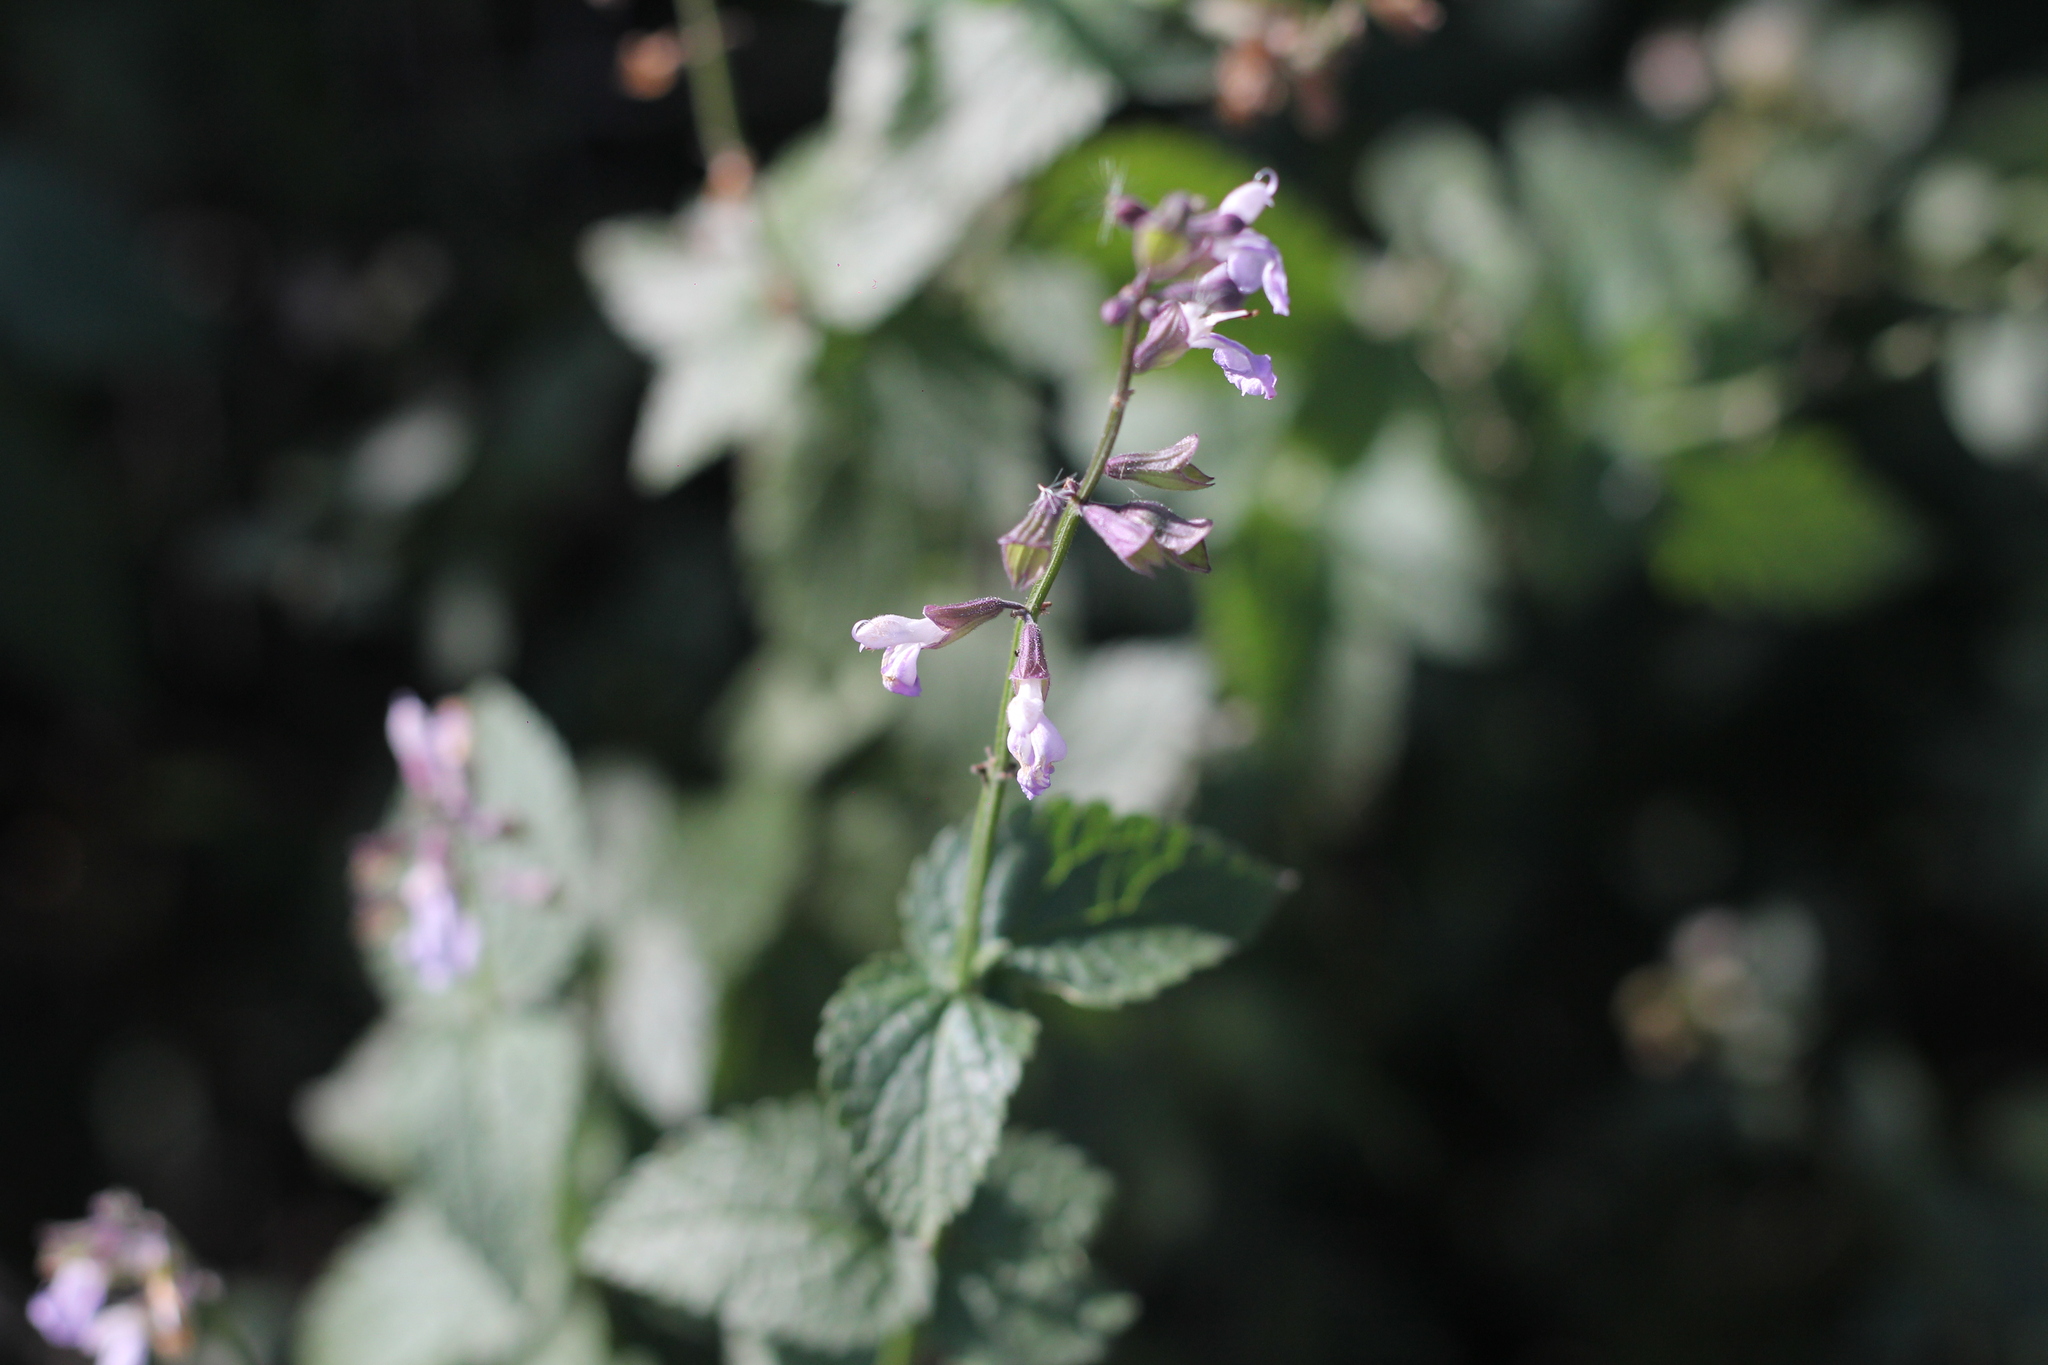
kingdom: Plantae
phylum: Tracheophyta
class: Magnoliopsida
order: Lamiales
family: Lamiaceae
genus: Salvia
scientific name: Salvia cardiophylla
